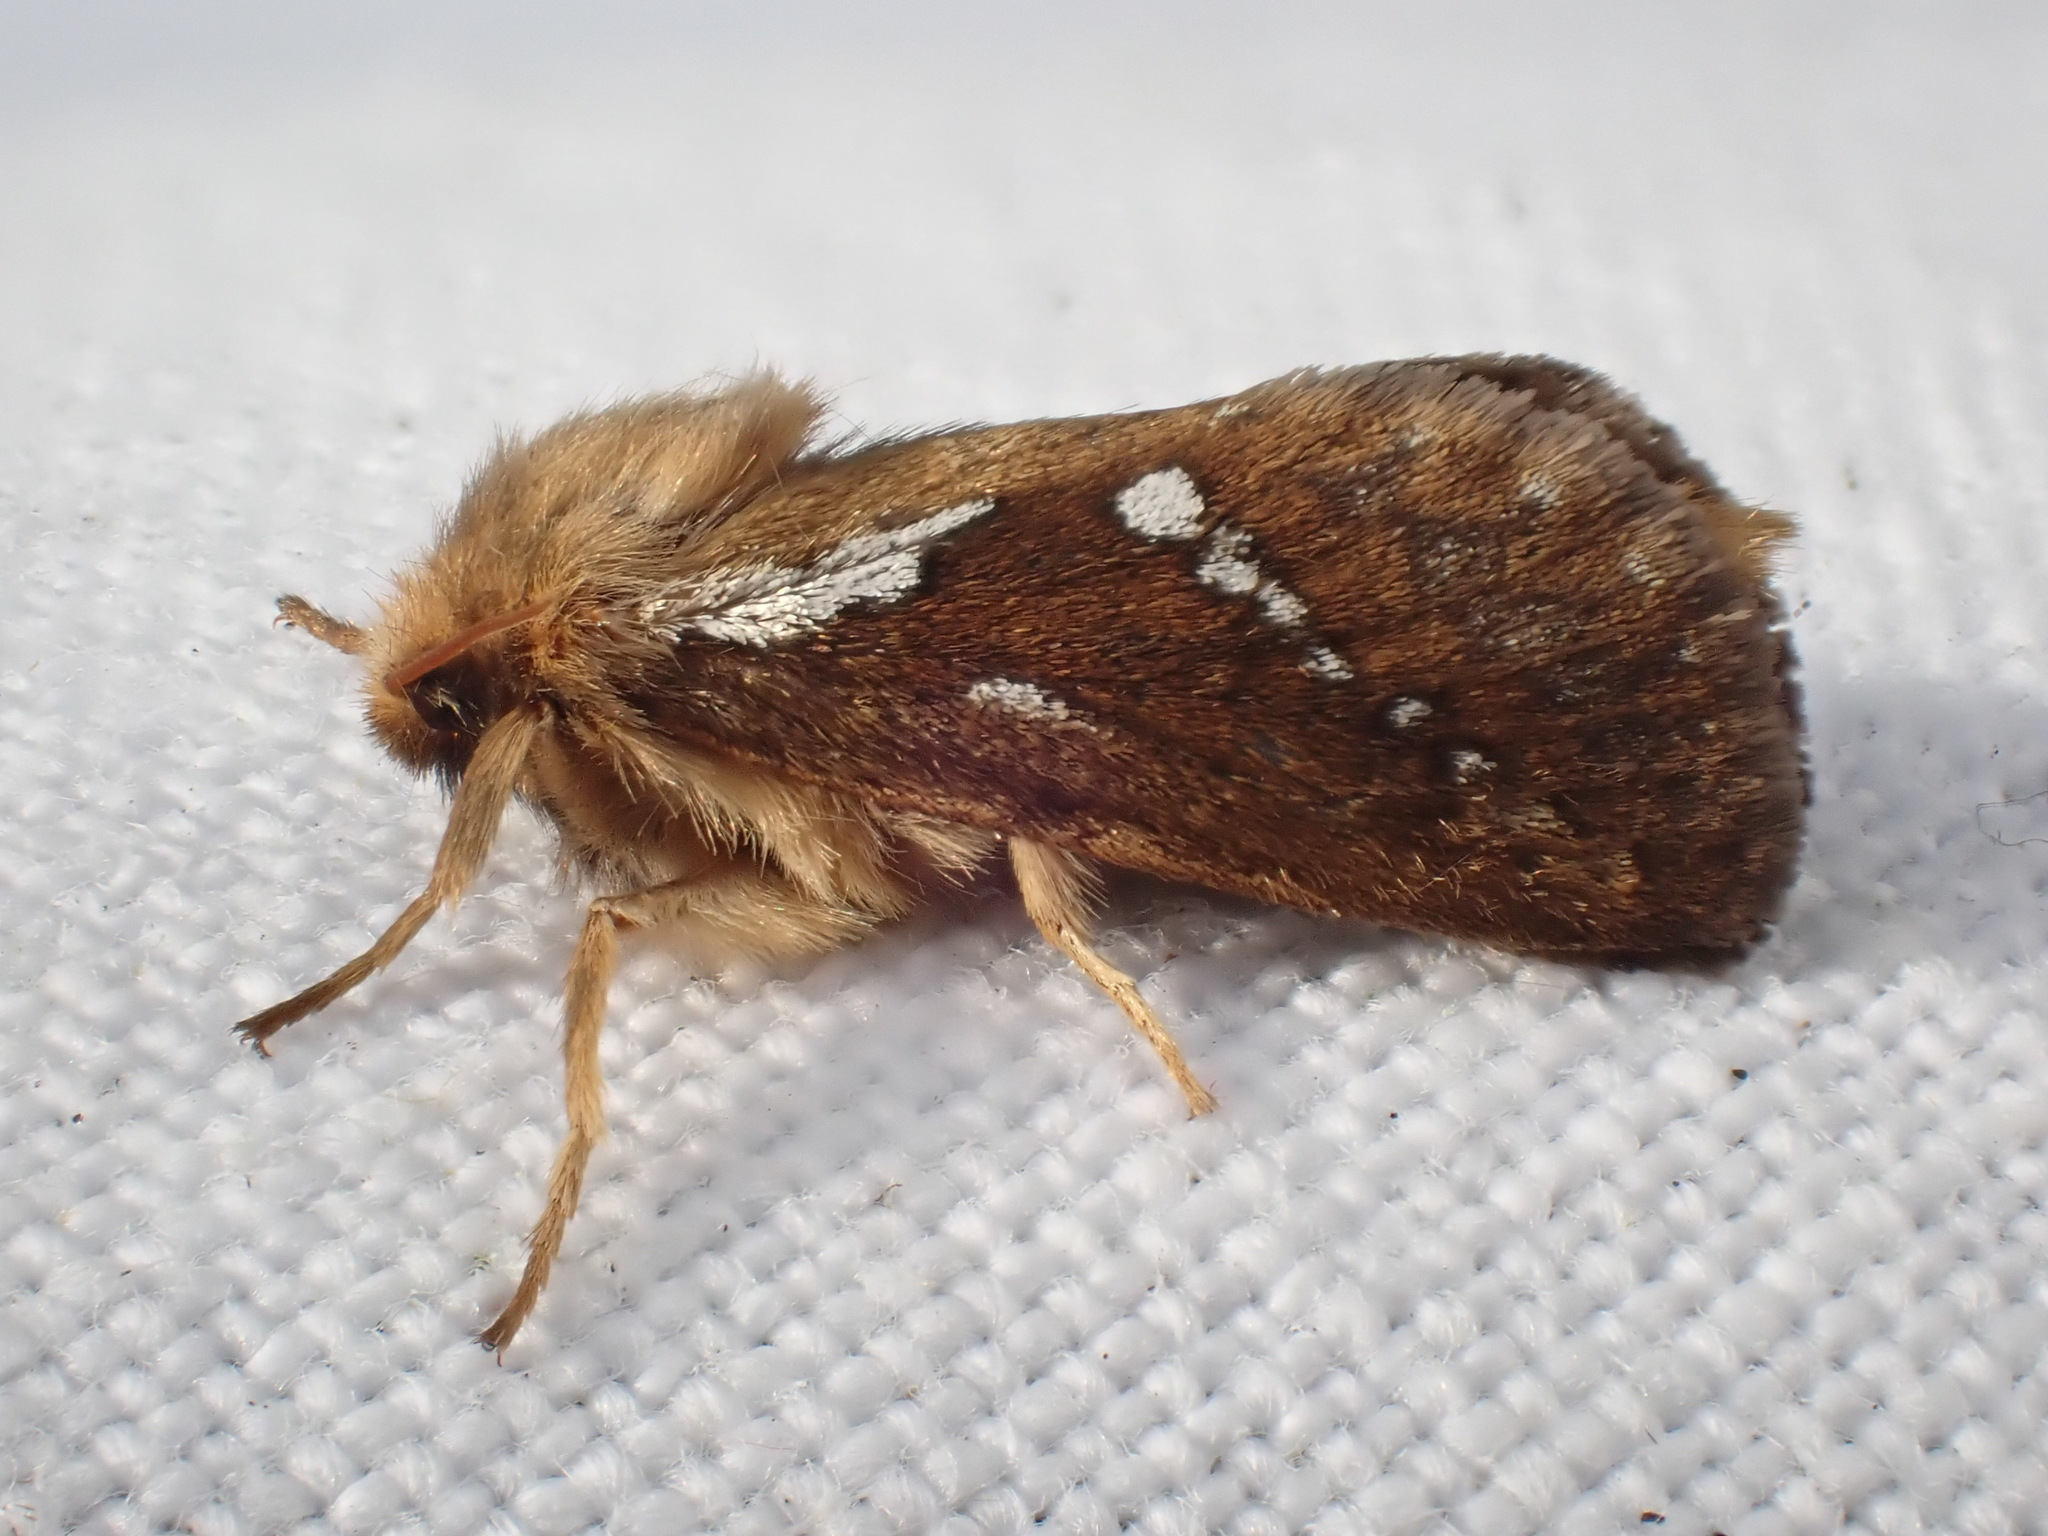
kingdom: Animalia
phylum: Arthropoda
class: Insecta
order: Lepidoptera
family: Hepialidae
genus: Korscheltellus
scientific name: Korscheltellus lupulina
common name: Common swift
